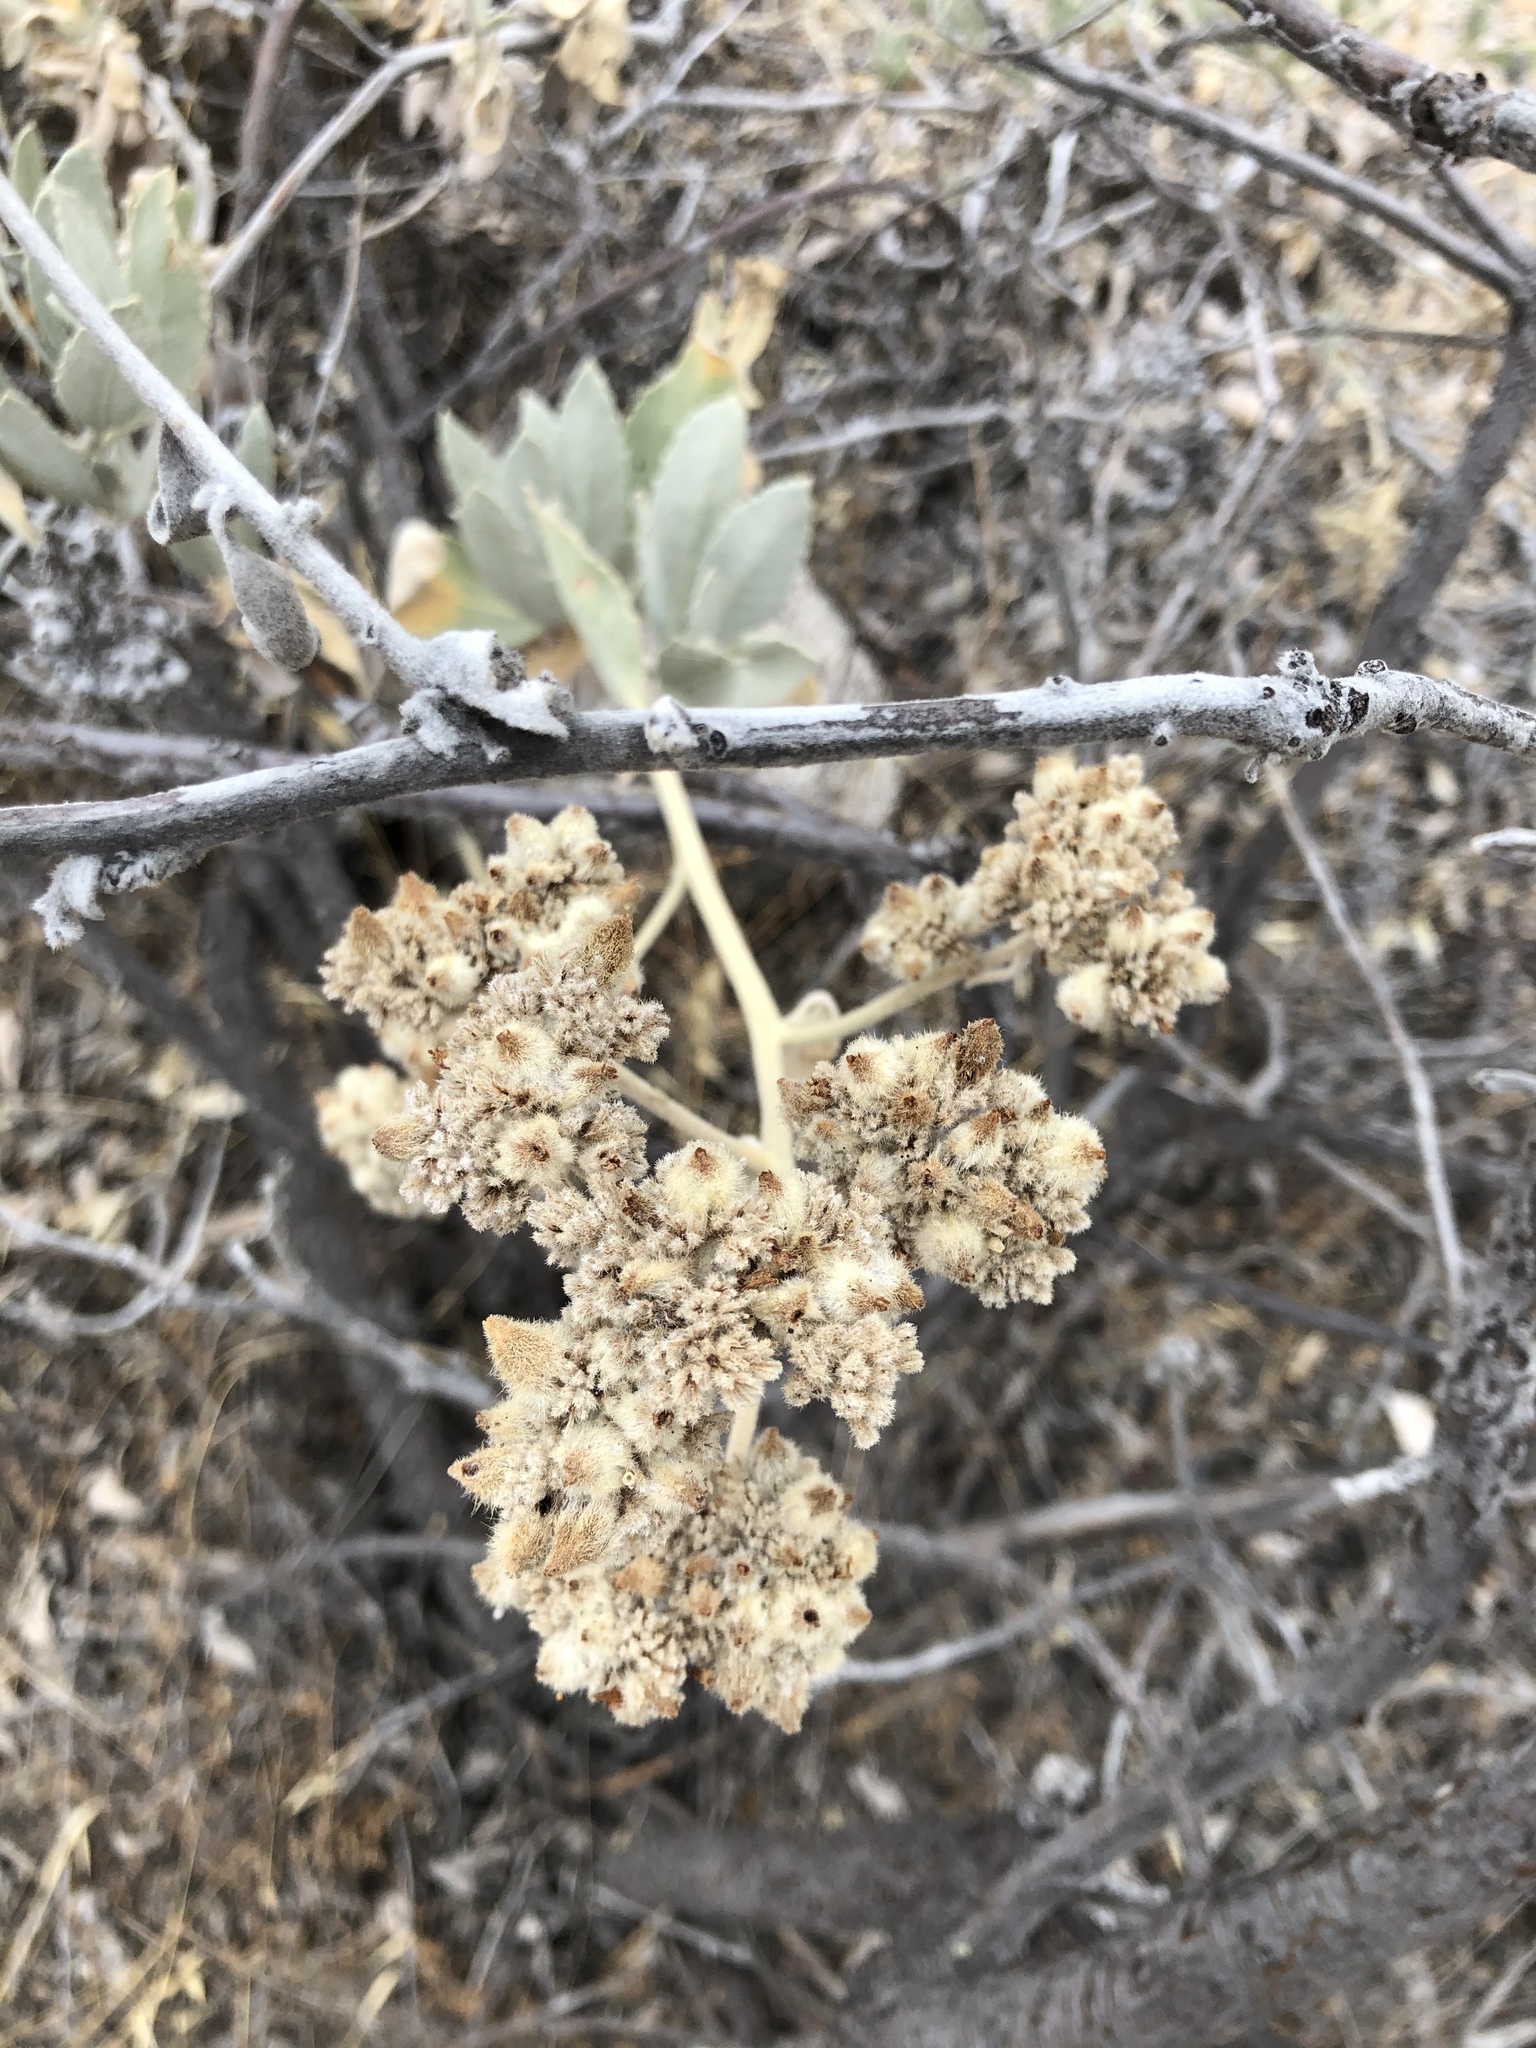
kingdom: Plantae
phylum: Tracheophyta
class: Magnoliopsida
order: Boraginales
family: Namaceae
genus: Eriodictyon
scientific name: Eriodictyon tomentosum
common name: Woolly yerba-santa
